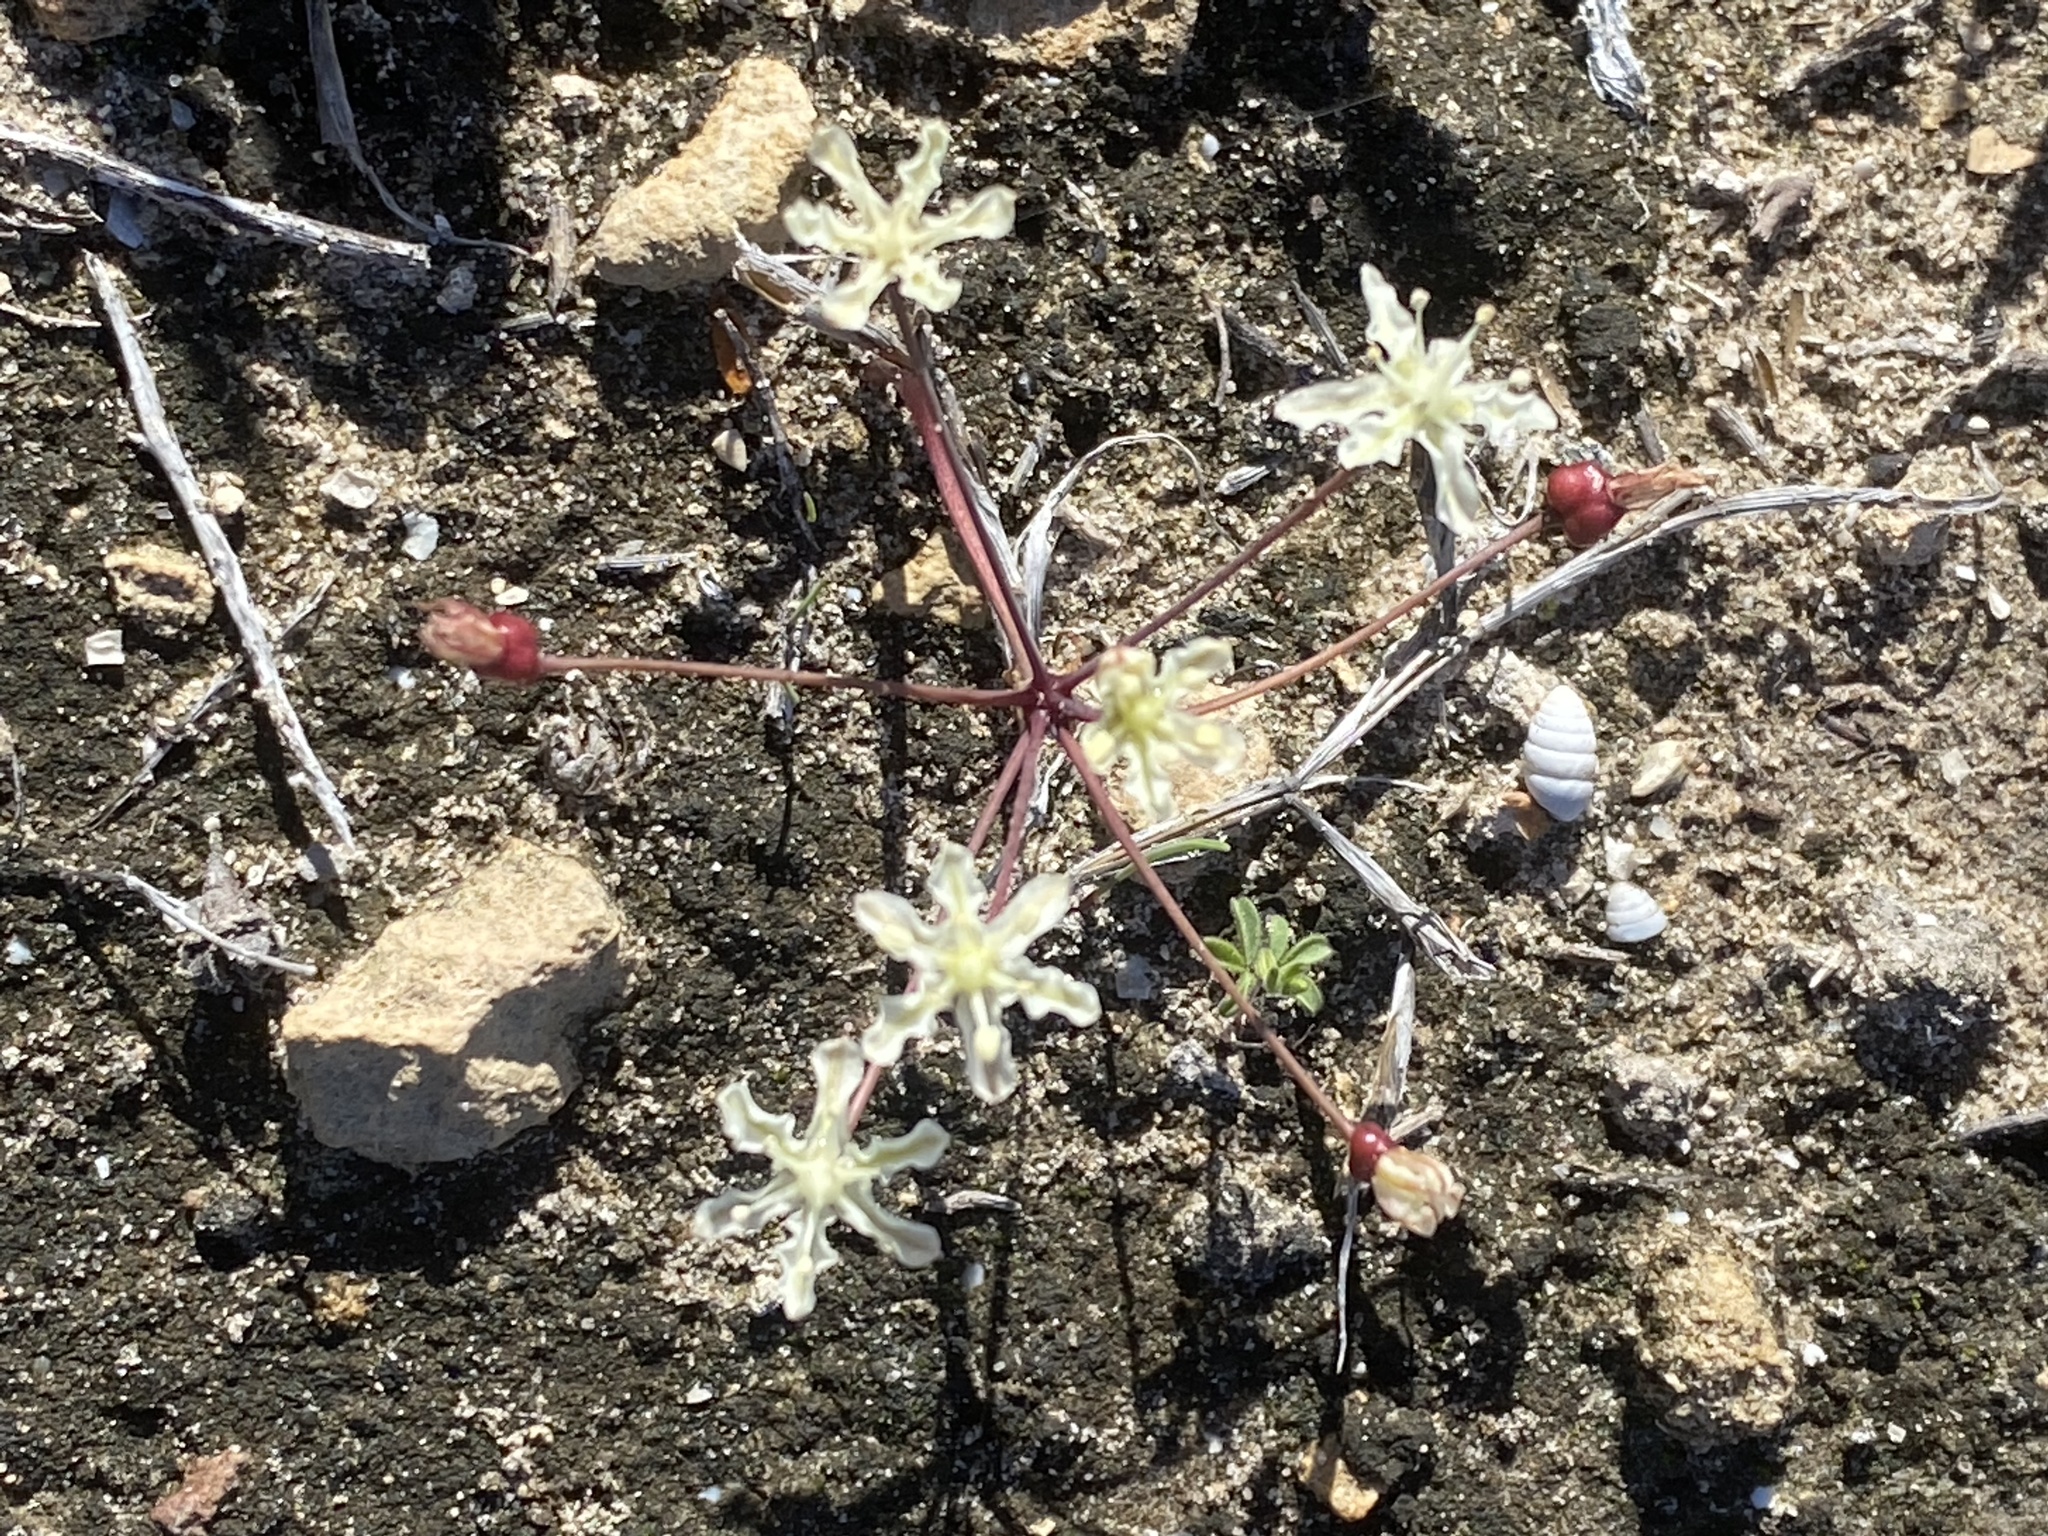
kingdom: Plantae
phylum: Tracheophyta
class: Liliopsida
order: Asparagales
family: Amaryllidaceae
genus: Strumaria
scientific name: Strumaria gemmata
